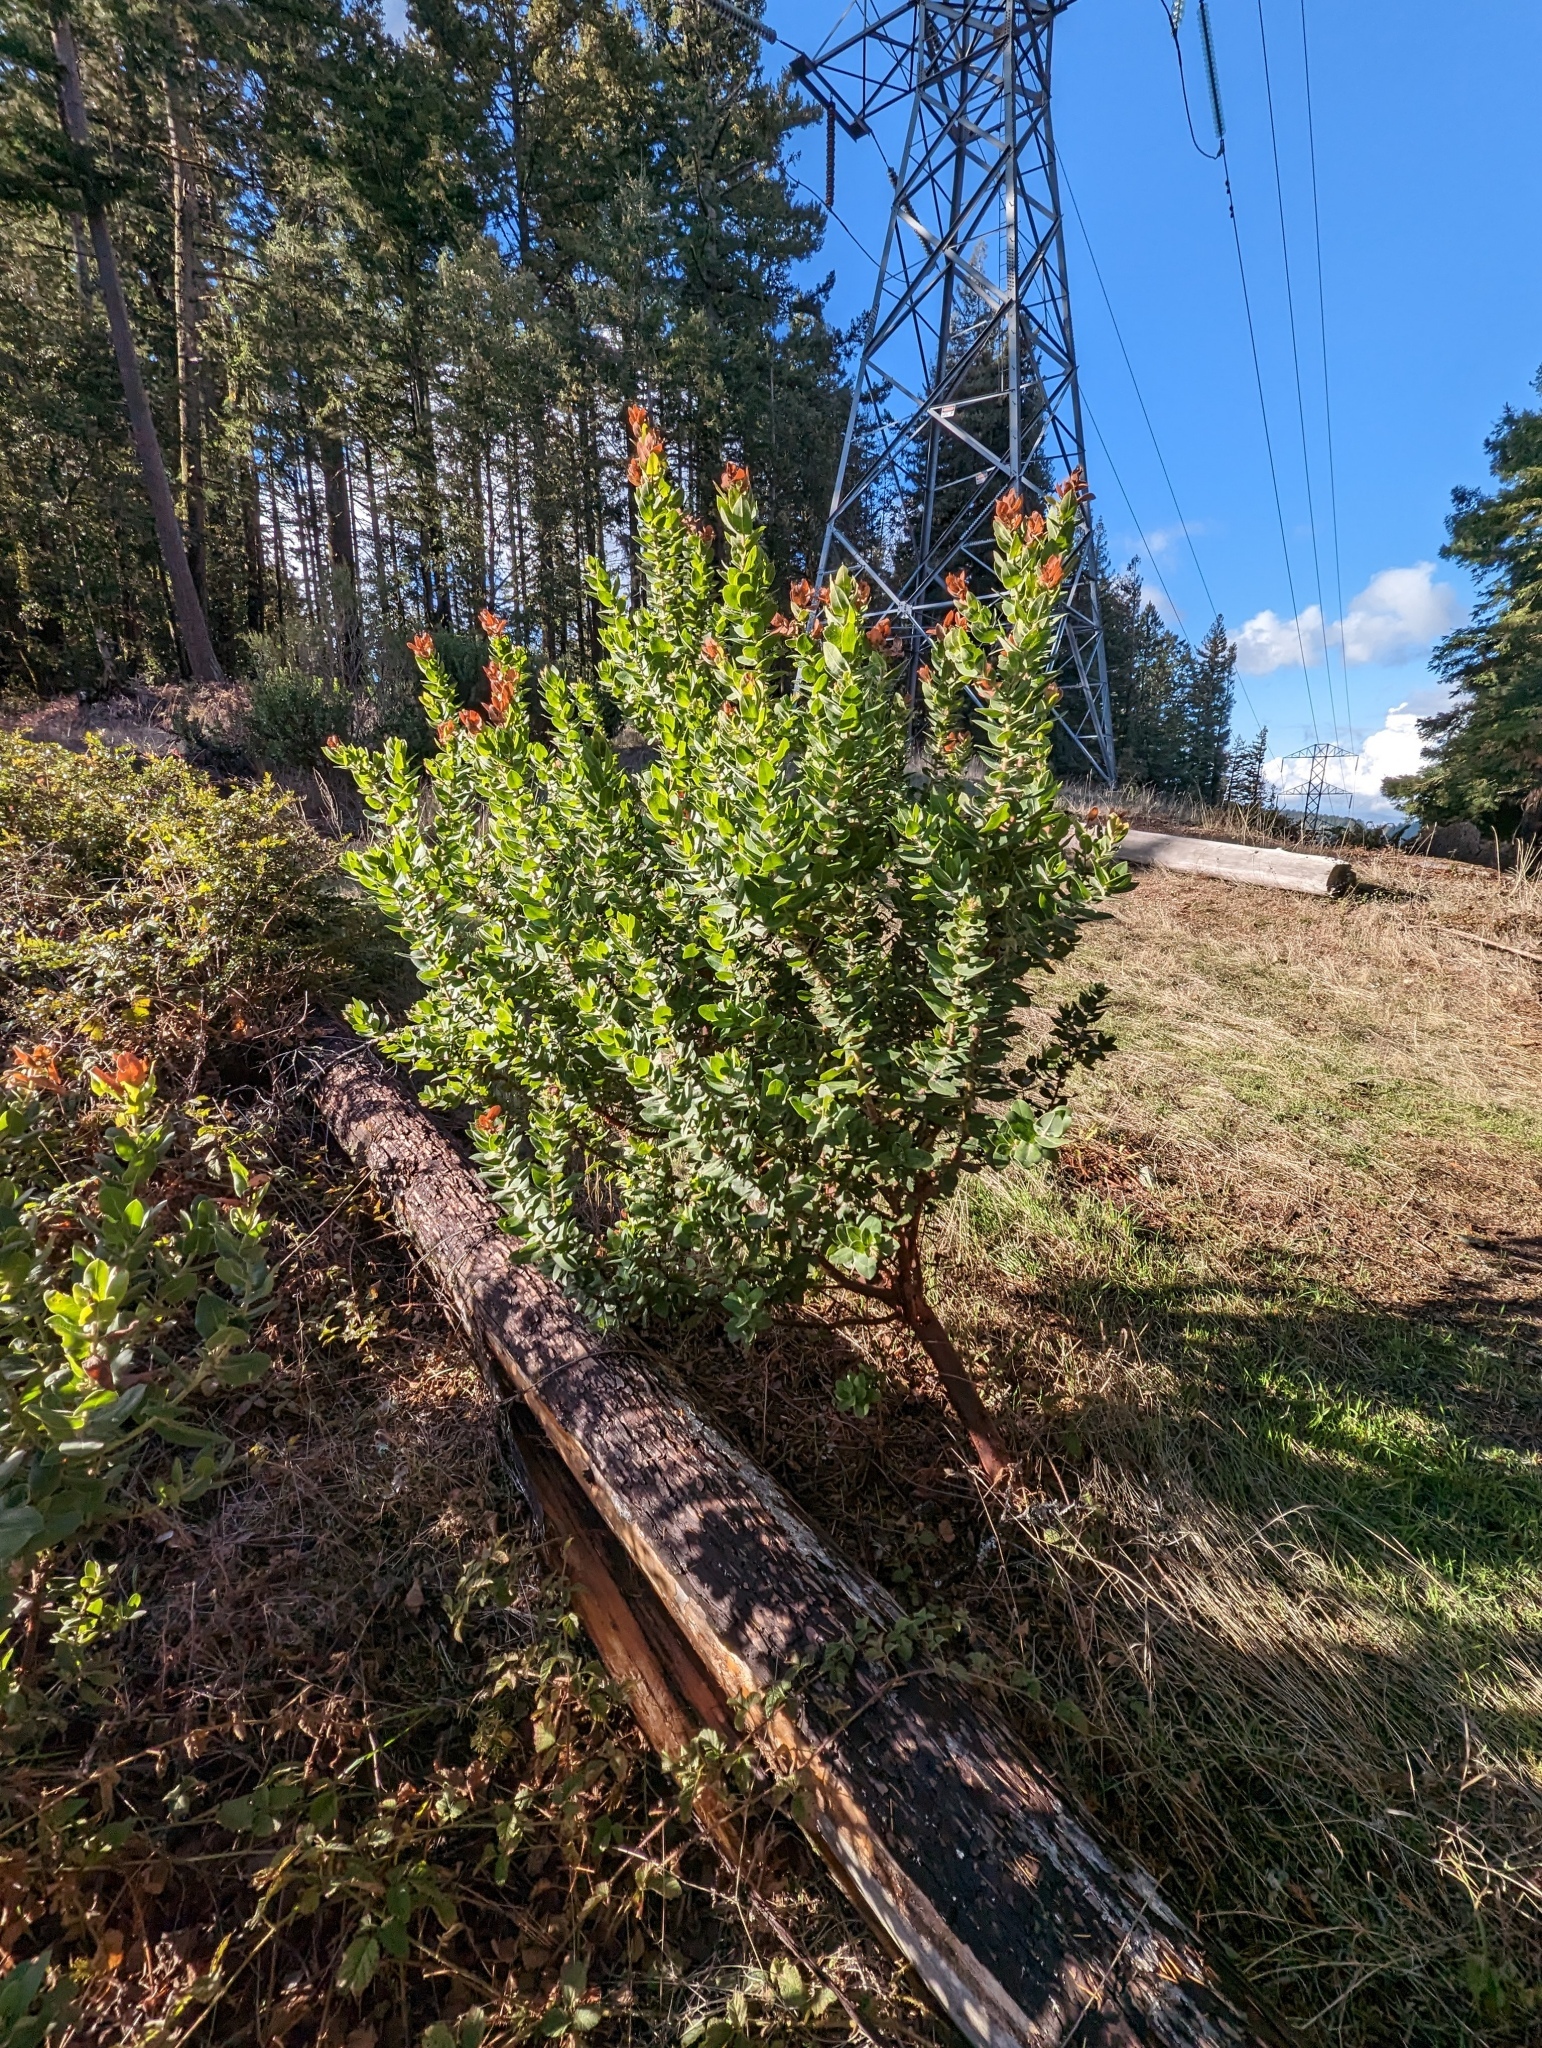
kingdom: Plantae
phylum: Tracheophyta
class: Magnoliopsida
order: Ericales
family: Ericaceae
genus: Arctostaphylos
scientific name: Arctostaphylos regismontana
